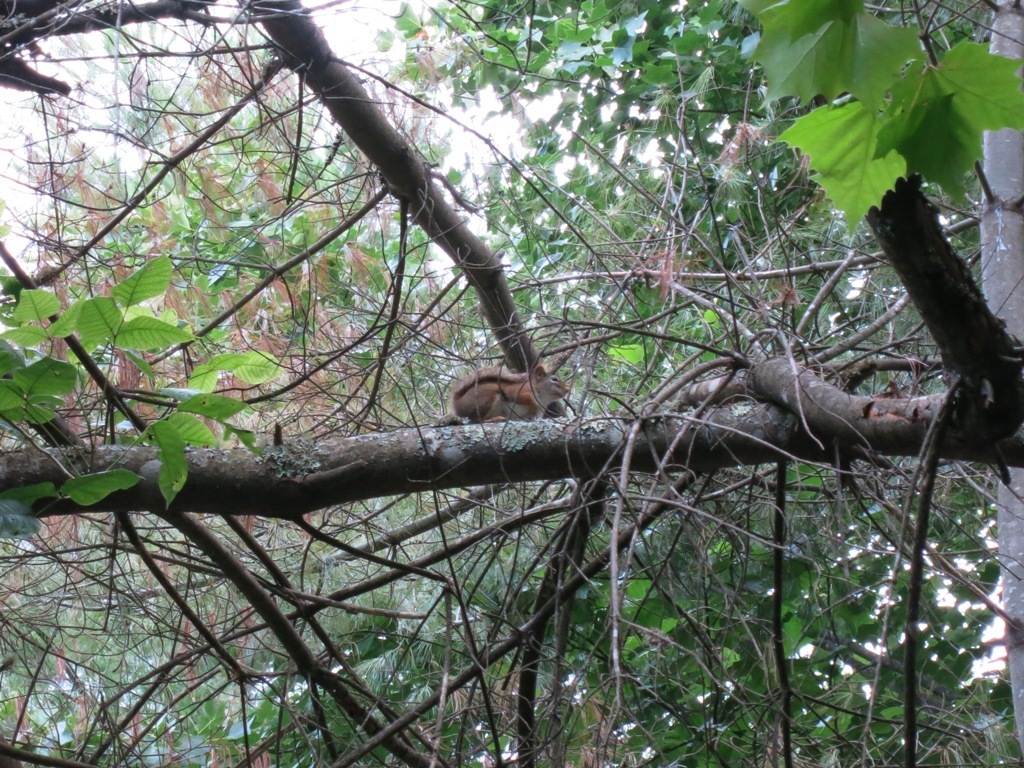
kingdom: Animalia
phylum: Chordata
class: Mammalia
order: Rodentia
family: Sciuridae
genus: Tamiasciurus
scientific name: Tamiasciurus hudsonicus
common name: Red squirrel
